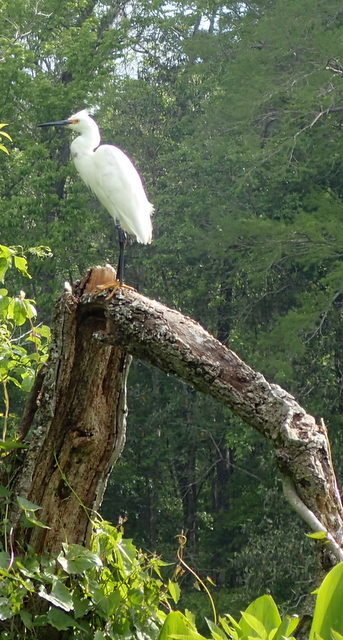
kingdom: Animalia
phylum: Chordata
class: Aves
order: Pelecaniformes
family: Ardeidae
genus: Egretta
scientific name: Egretta thula
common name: Snowy egret
